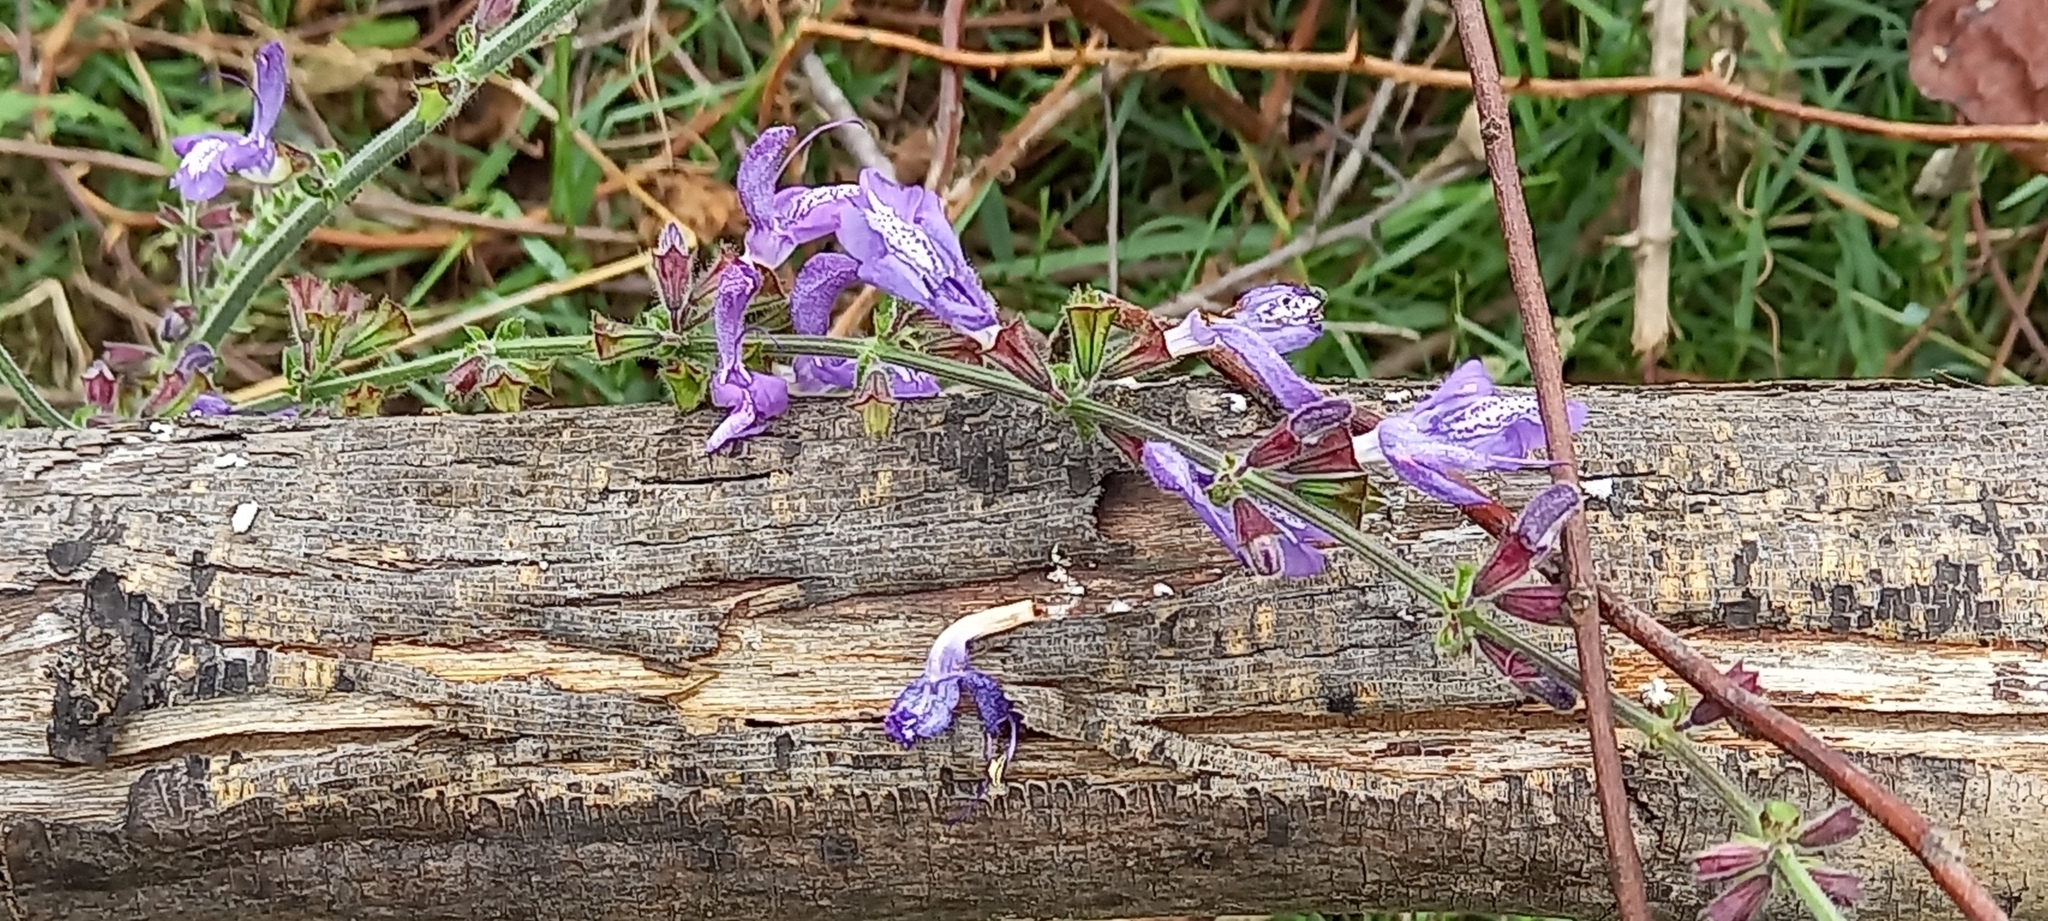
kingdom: Plantae
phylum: Tracheophyta
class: Magnoliopsida
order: Lamiales
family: Lamiaceae
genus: Salvia
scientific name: Salvia forskaehlei
